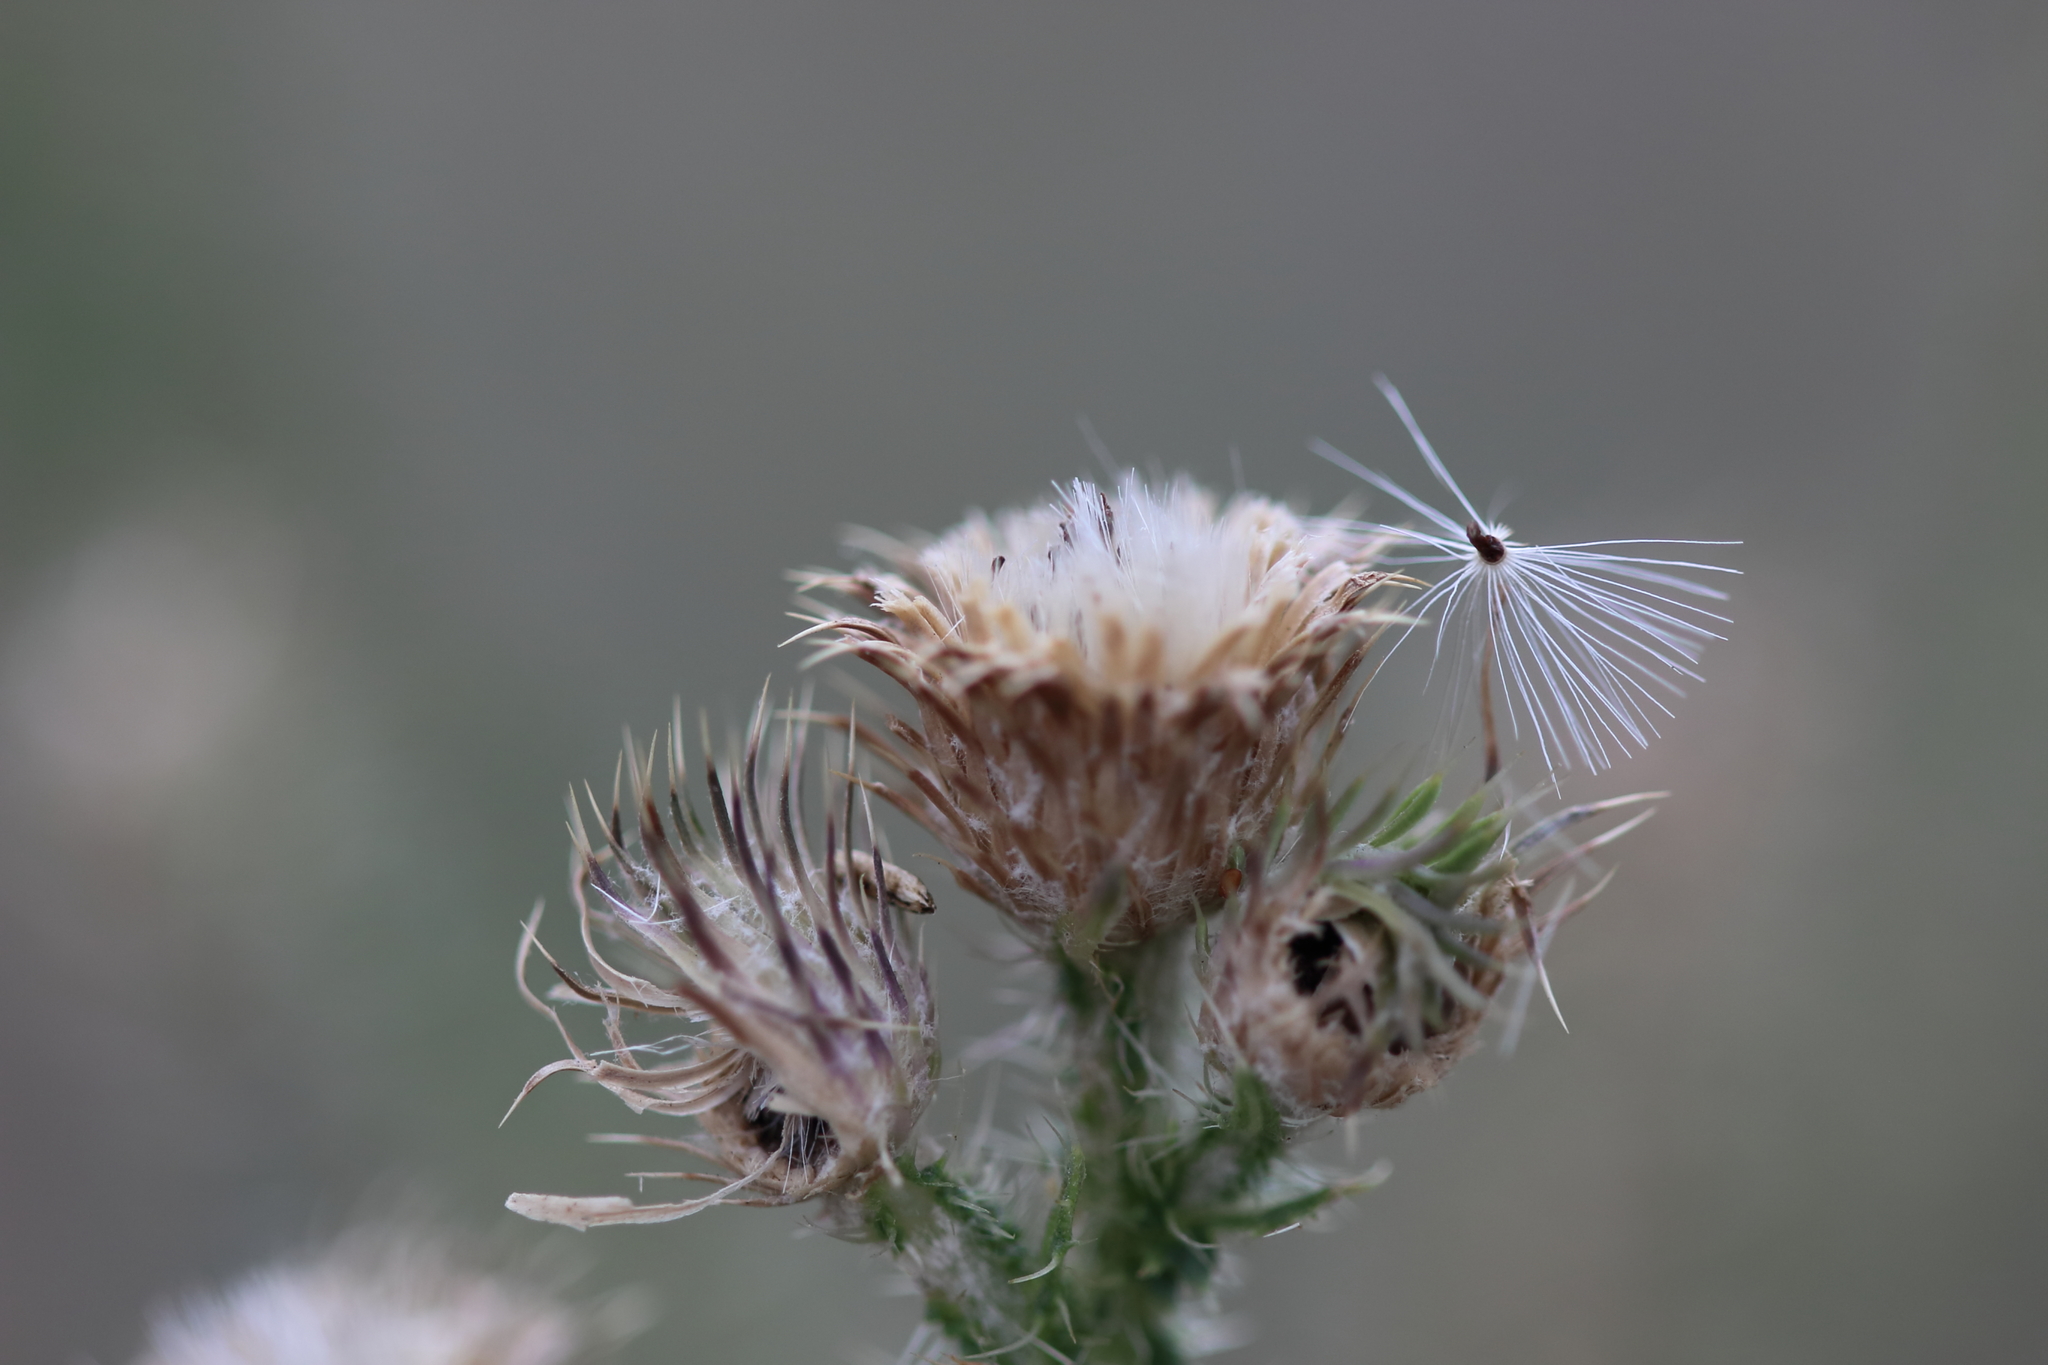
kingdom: Plantae
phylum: Tracheophyta
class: Magnoliopsida
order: Asterales
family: Asteraceae
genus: Carduus
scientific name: Carduus acanthoides
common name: Plumeless thistle
